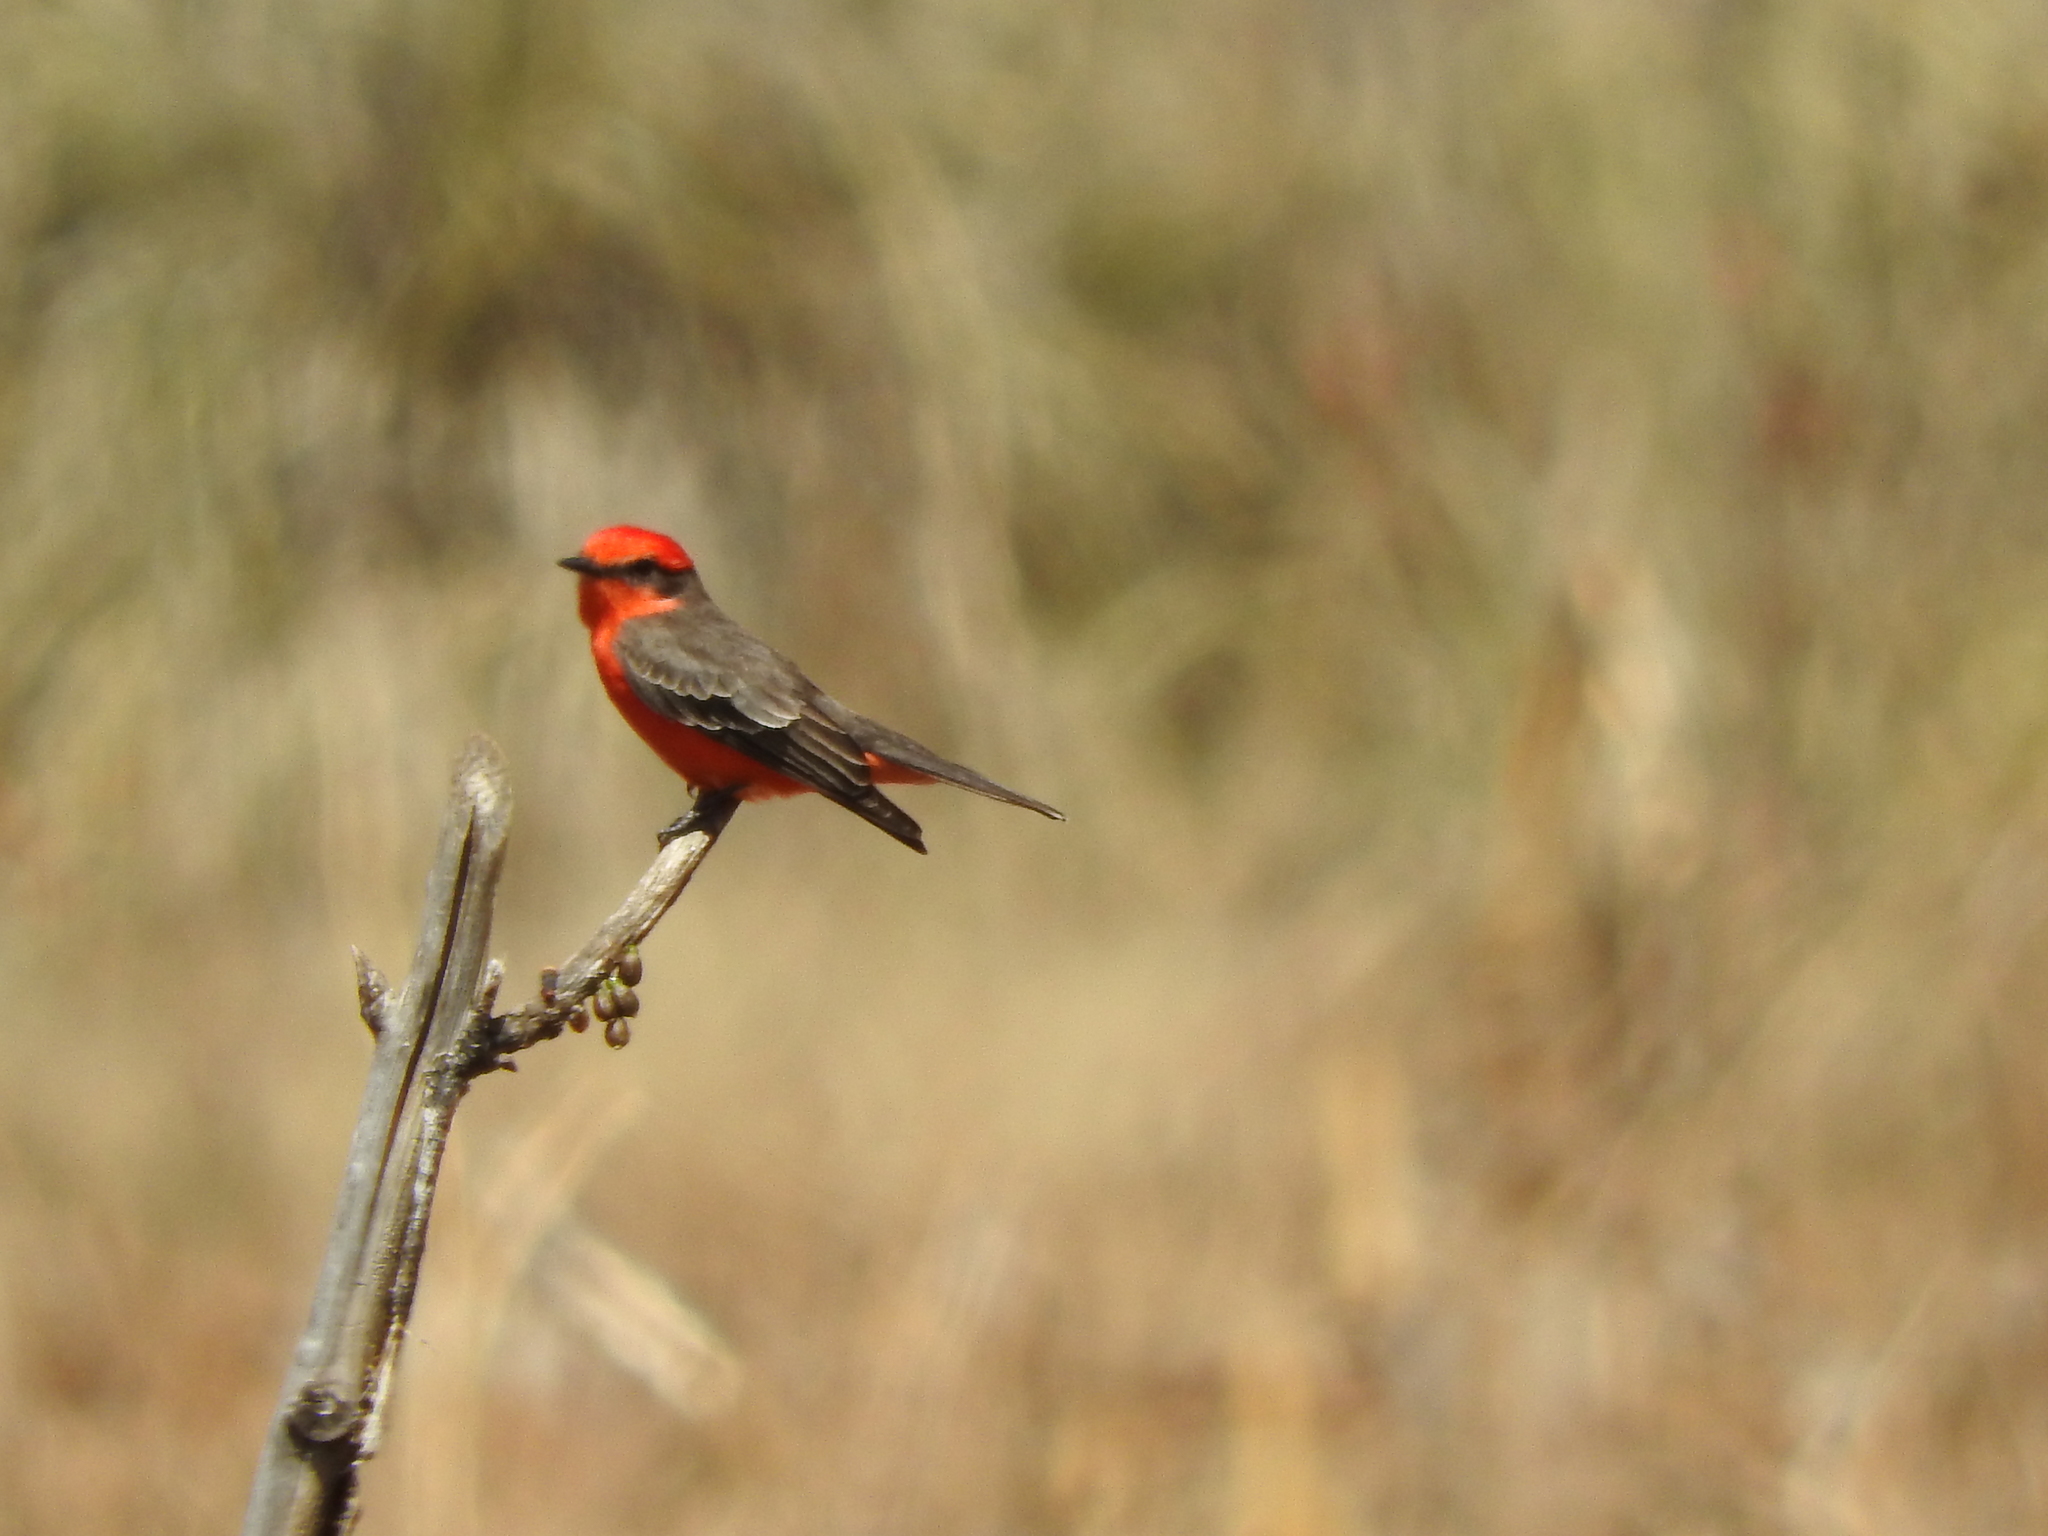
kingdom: Animalia
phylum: Chordata
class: Aves
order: Passeriformes
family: Tyrannidae
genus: Pyrocephalus
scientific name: Pyrocephalus rubinus
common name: Vermilion flycatcher
